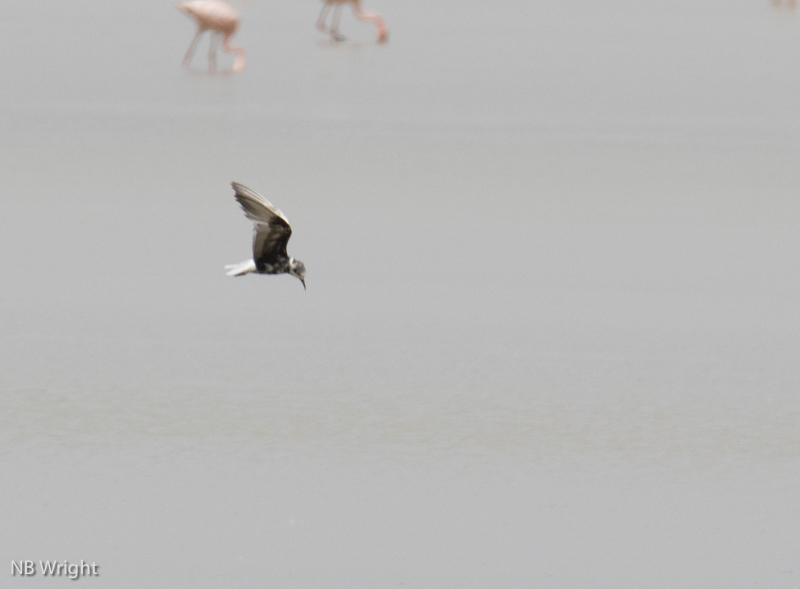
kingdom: Animalia
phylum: Chordata
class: Aves
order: Charadriiformes
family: Laridae
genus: Chlidonias
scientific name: Chlidonias leucopterus
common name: White-winged tern
